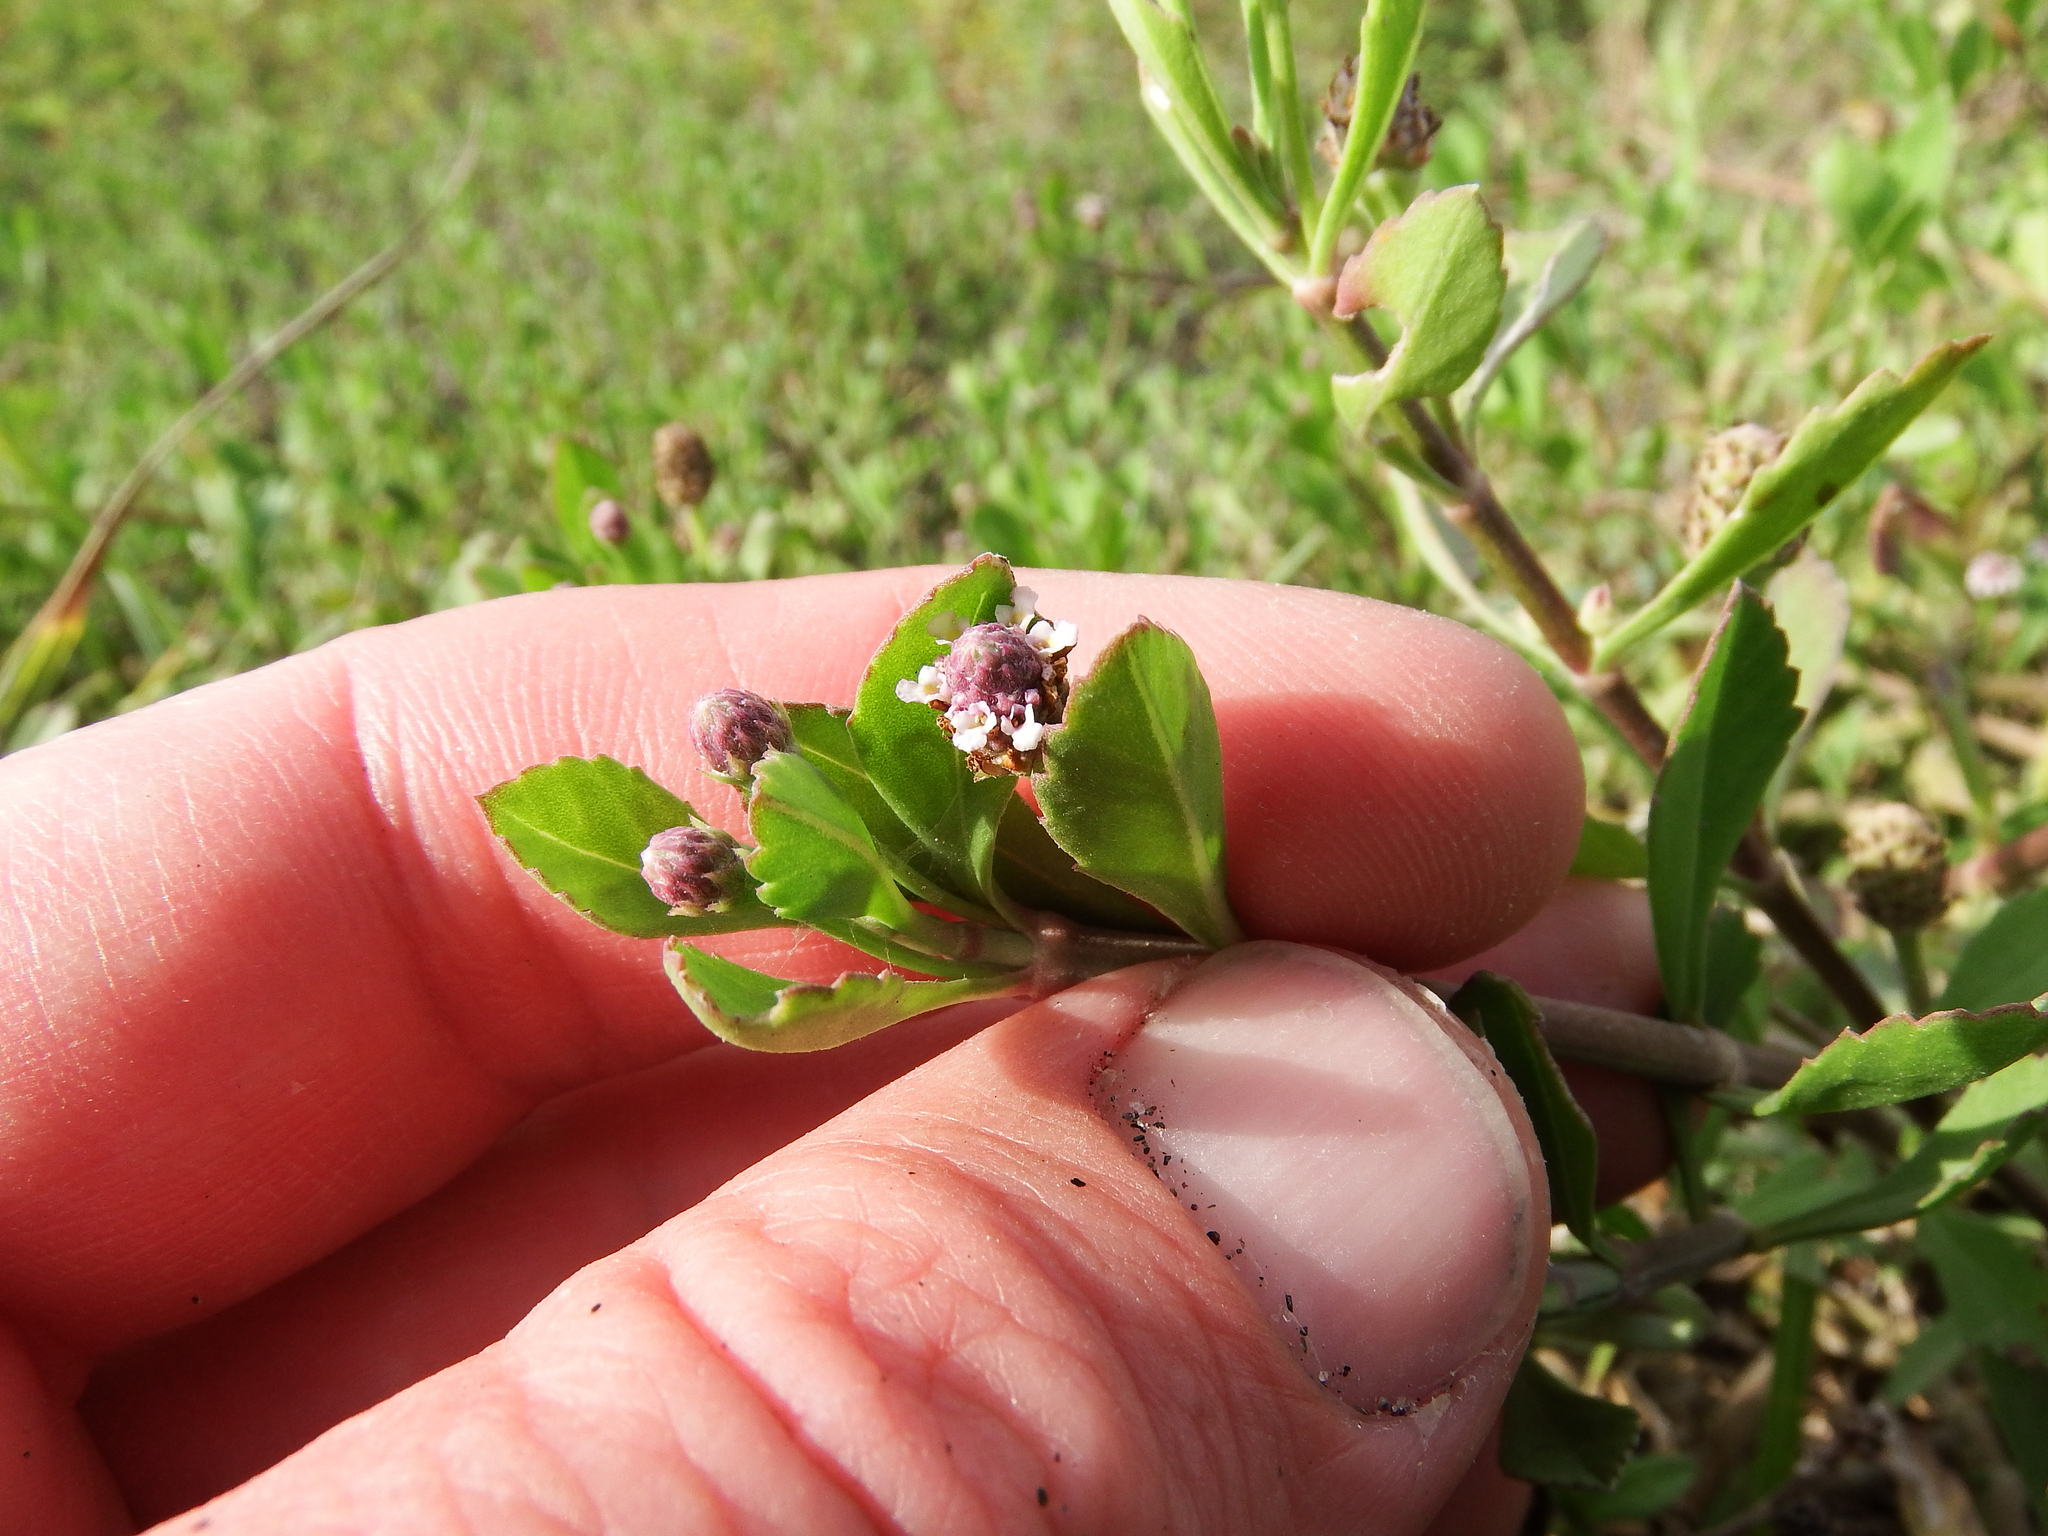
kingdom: Plantae
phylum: Tracheophyta
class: Magnoliopsida
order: Lamiales
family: Verbenaceae
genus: Phyla
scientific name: Phyla nodiflora
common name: Frogfruit
